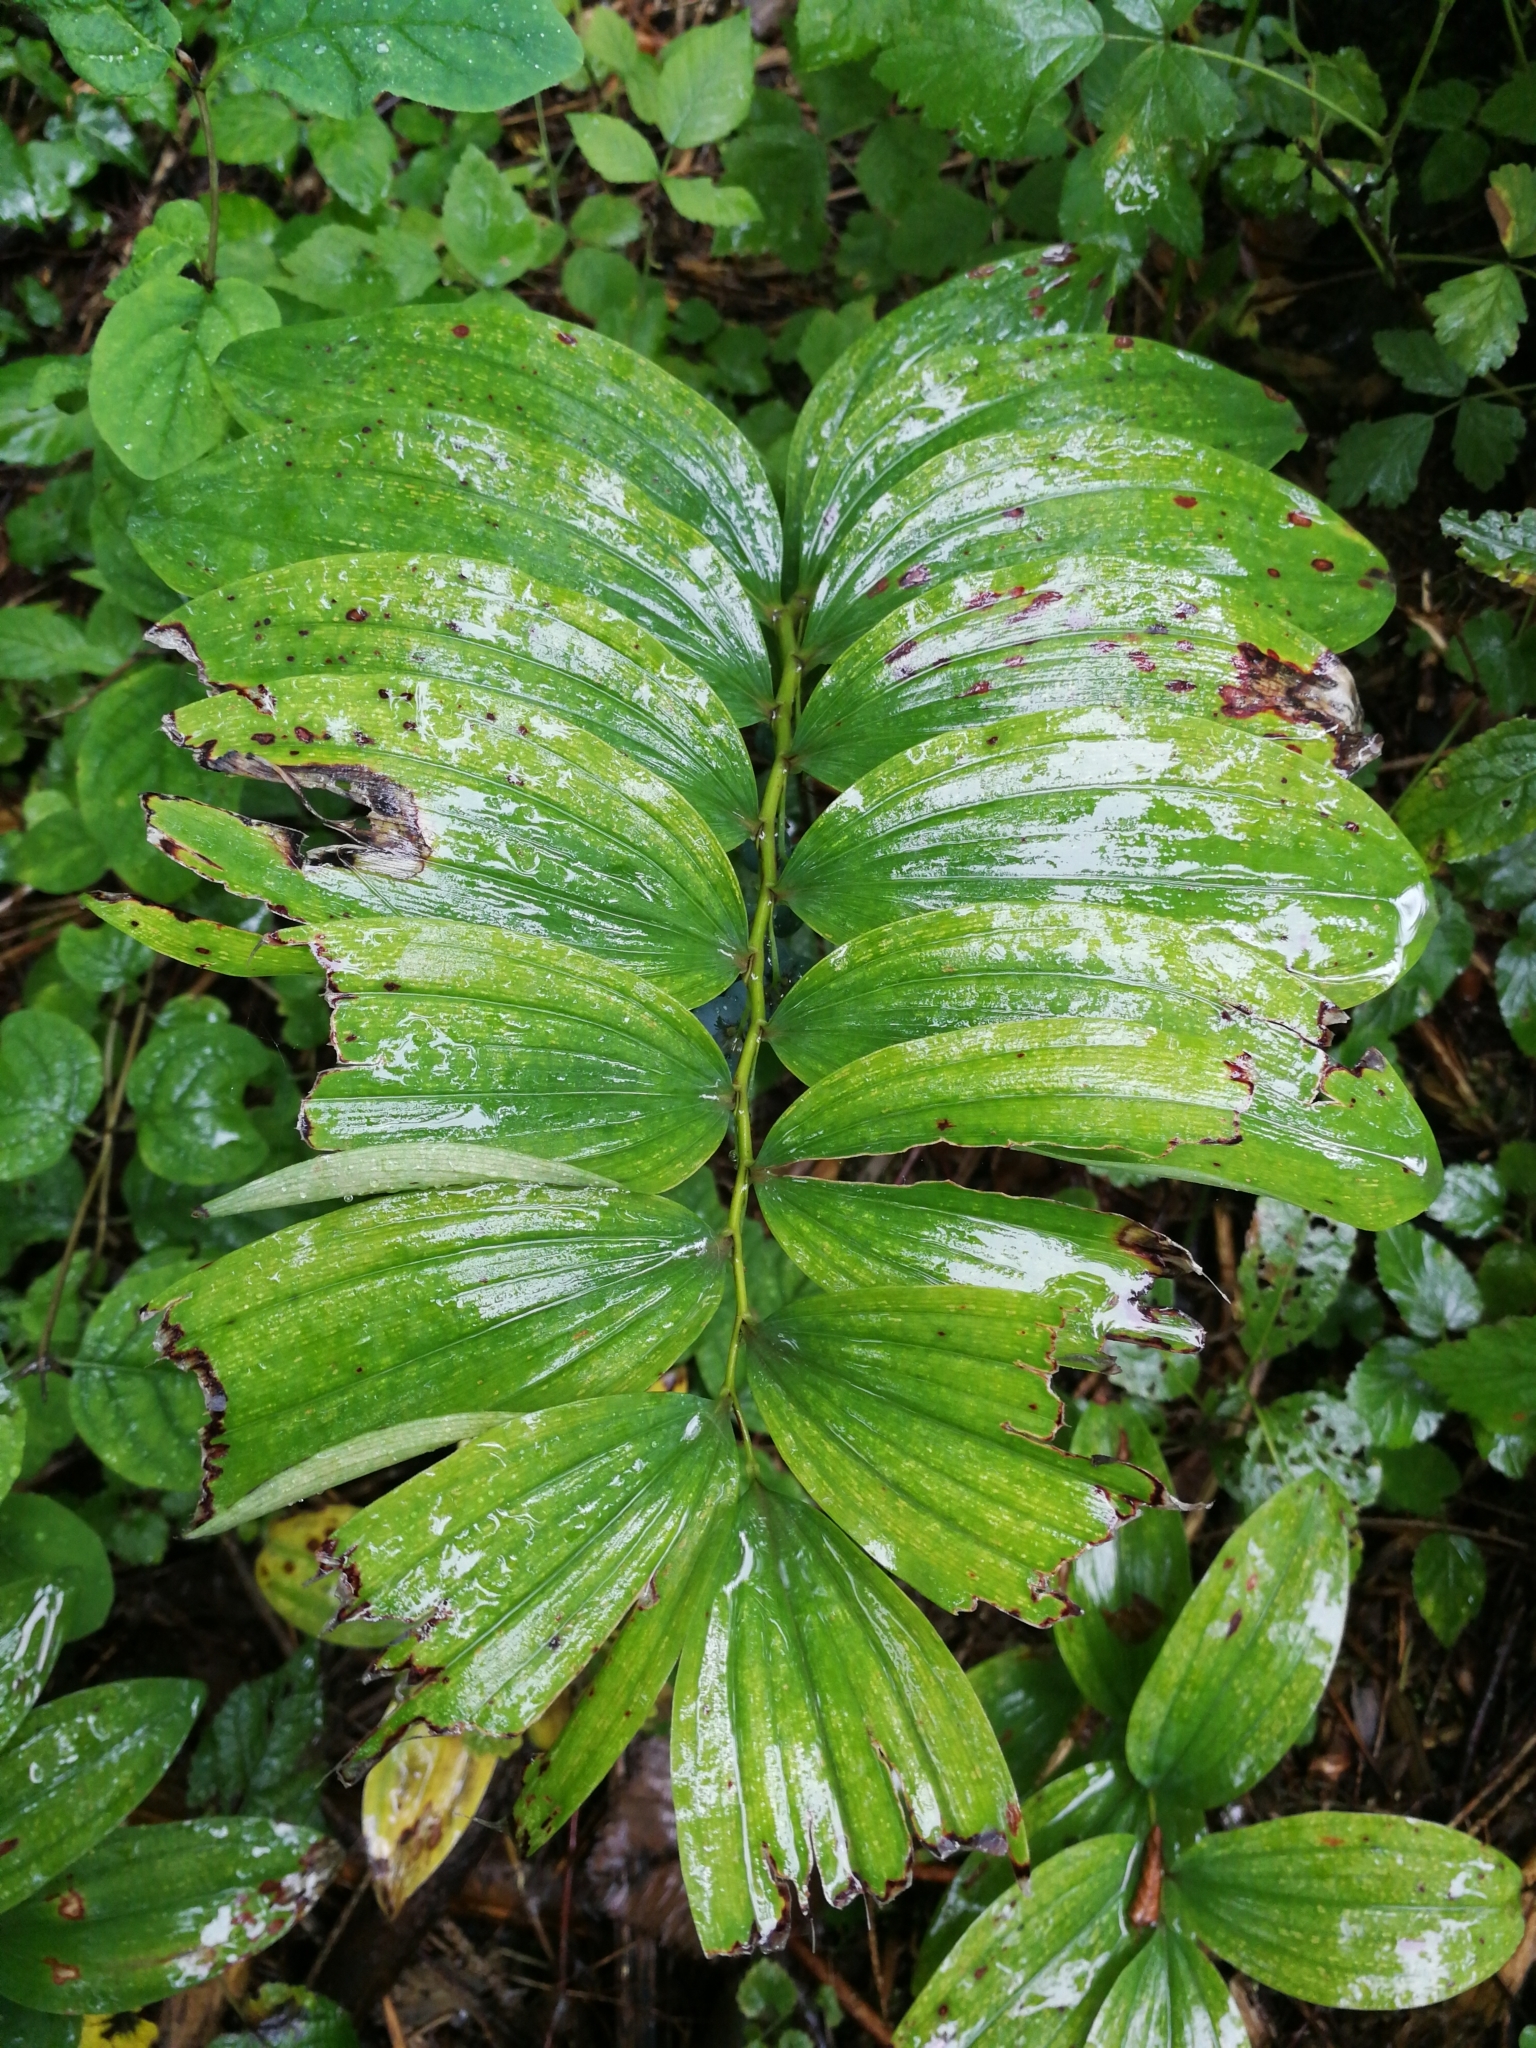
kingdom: Plantae
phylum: Tracheophyta
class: Liliopsida
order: Asparagales
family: Asparagaceae
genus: Polygonatum
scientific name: Polygonatum multiflorum
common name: Solomon's-seal
